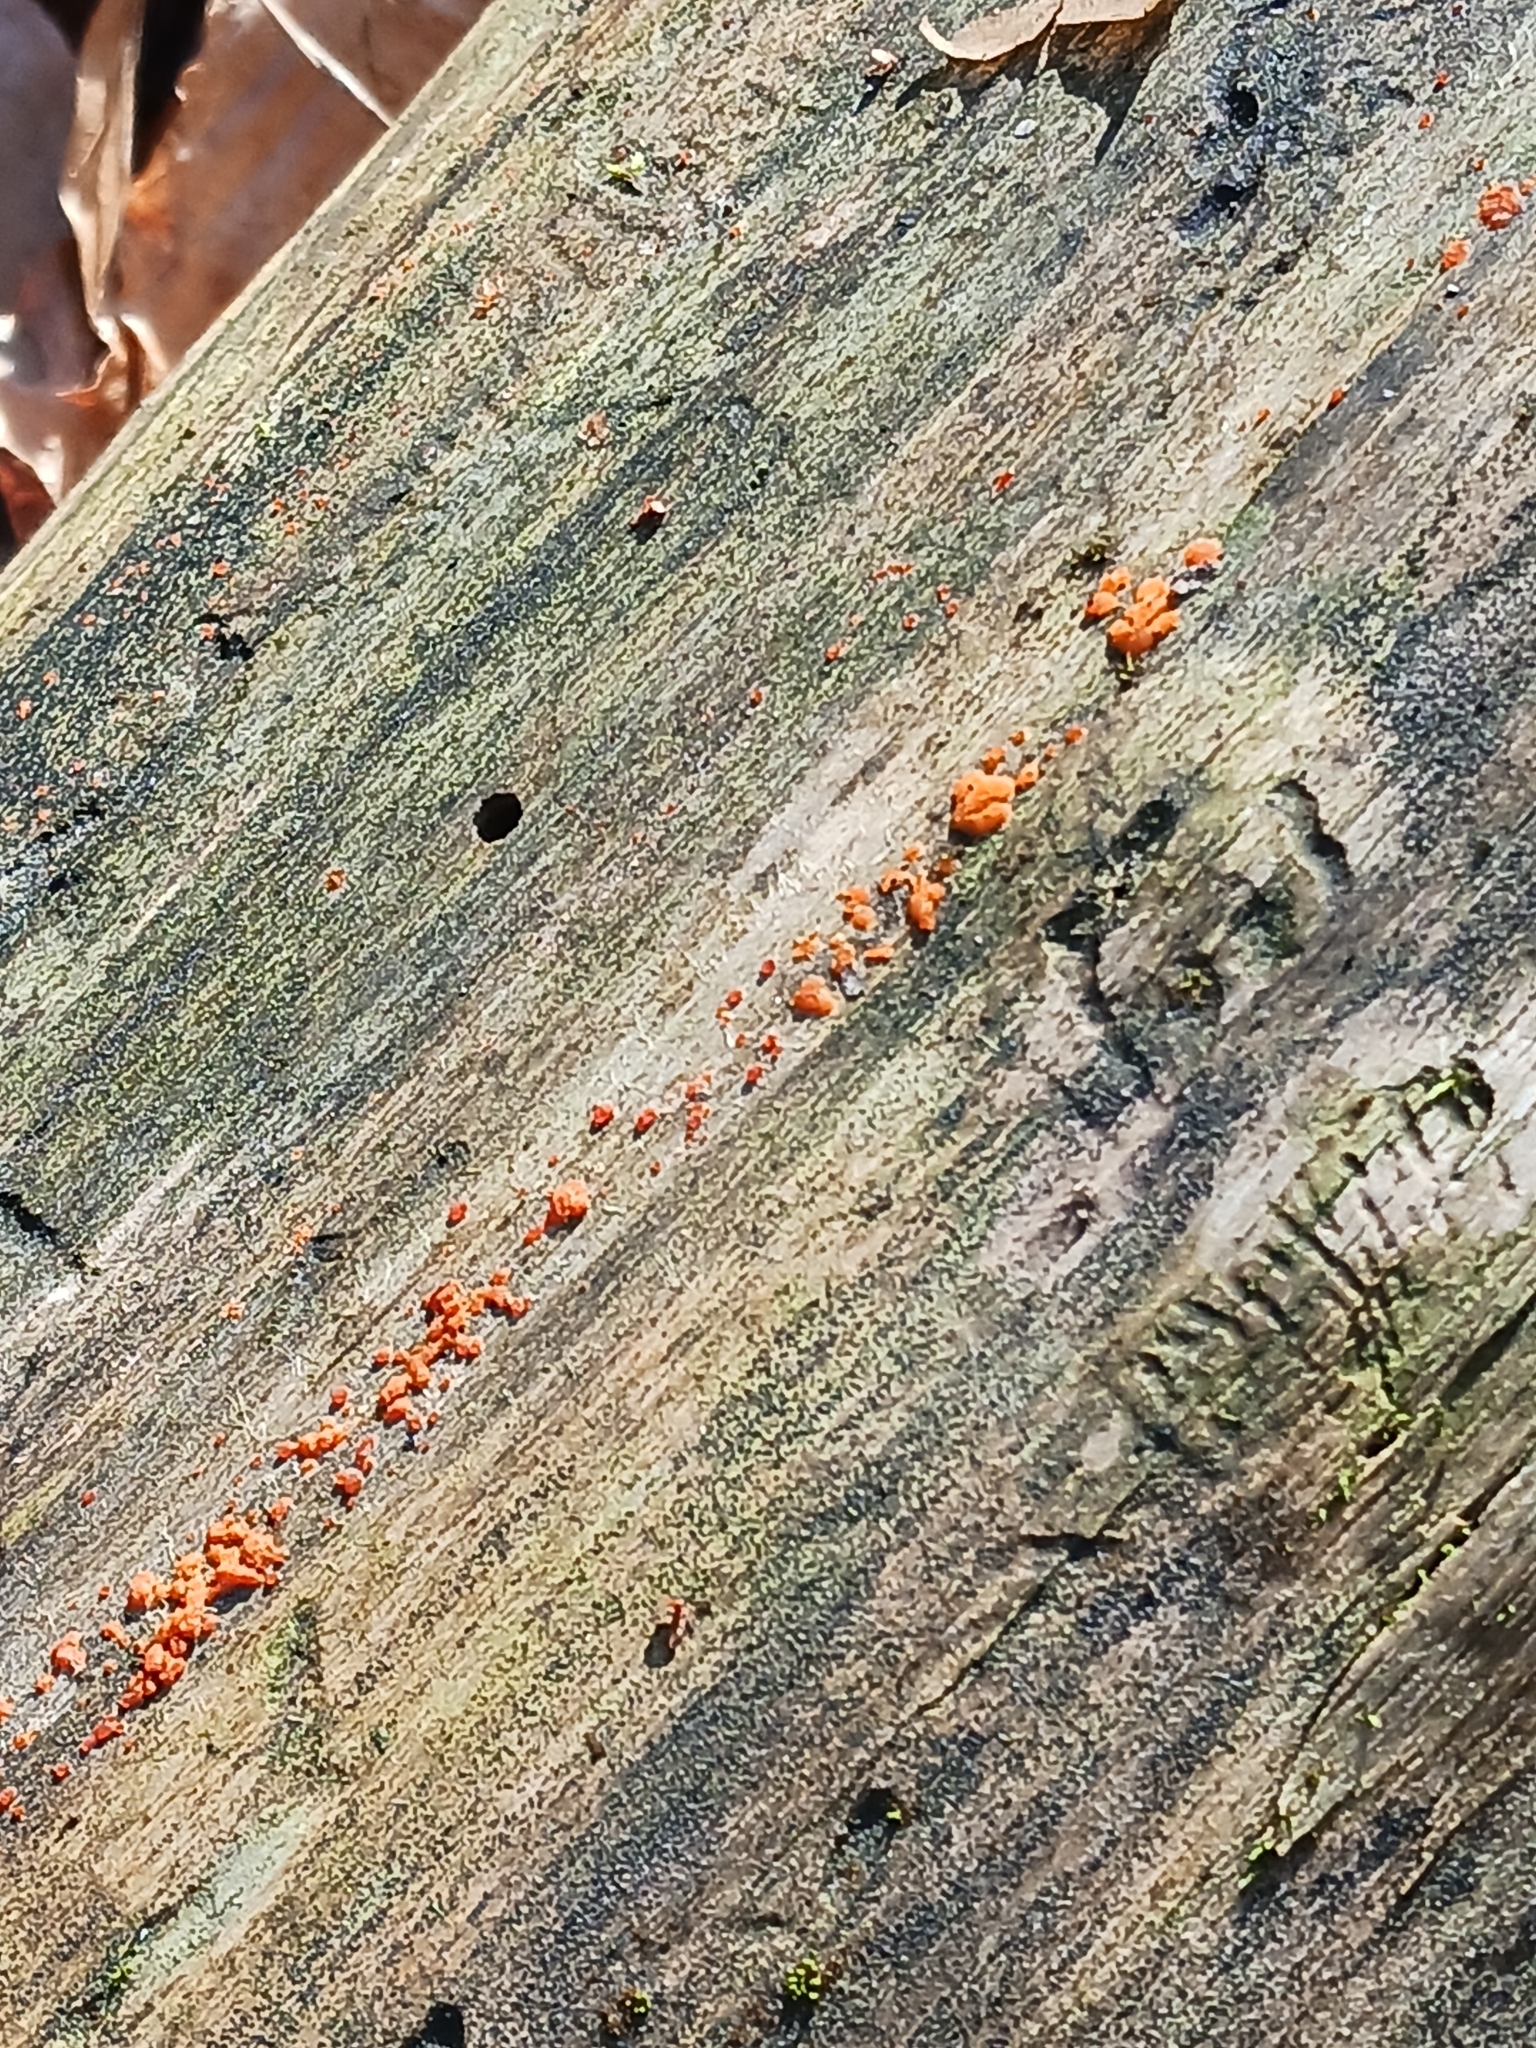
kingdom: Fungi
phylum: Basidiomycota
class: Dacrymycetes
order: Dacrymycetales
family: Dacrymycetaceae
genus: Dacrymyces
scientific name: Dacrymyces stillatus
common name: Common jelly spot
